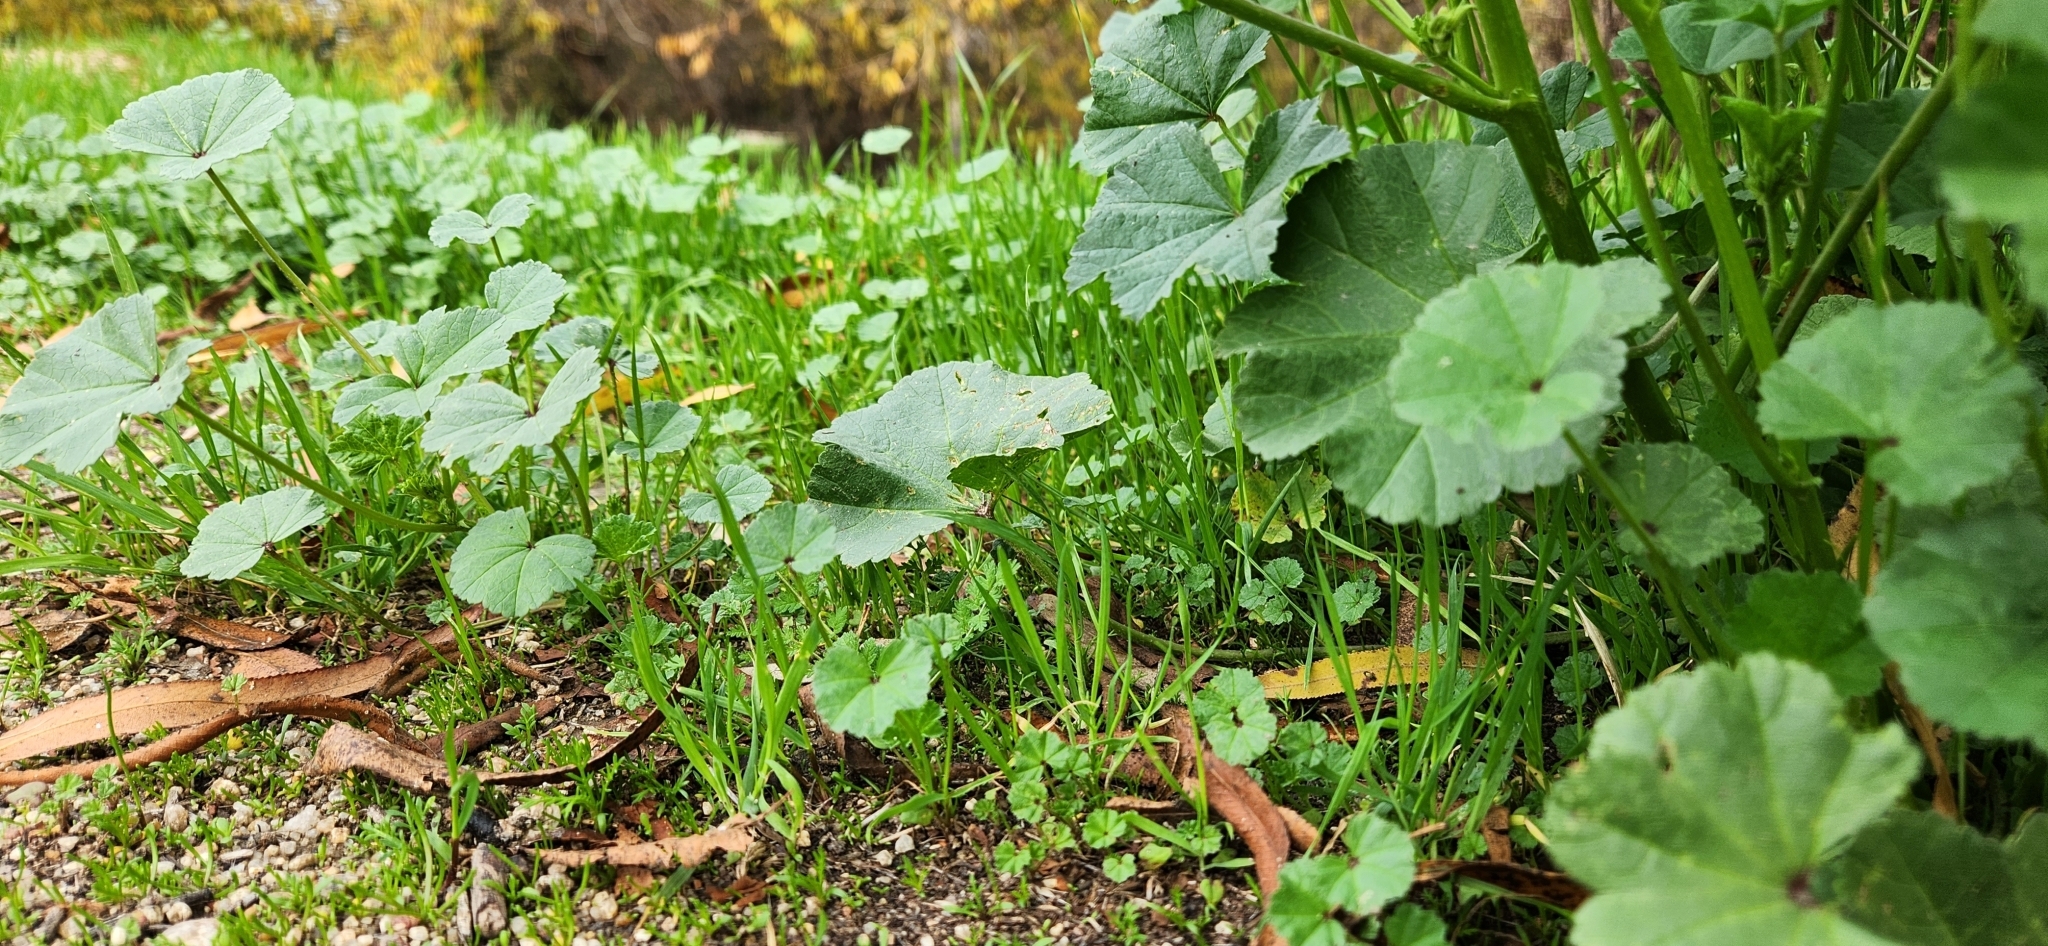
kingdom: Plantae
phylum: Tracheophyta
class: Magnoliopsida
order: Malvales
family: Malvaceae
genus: Malva
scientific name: Malva parviflora
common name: Least mallow
